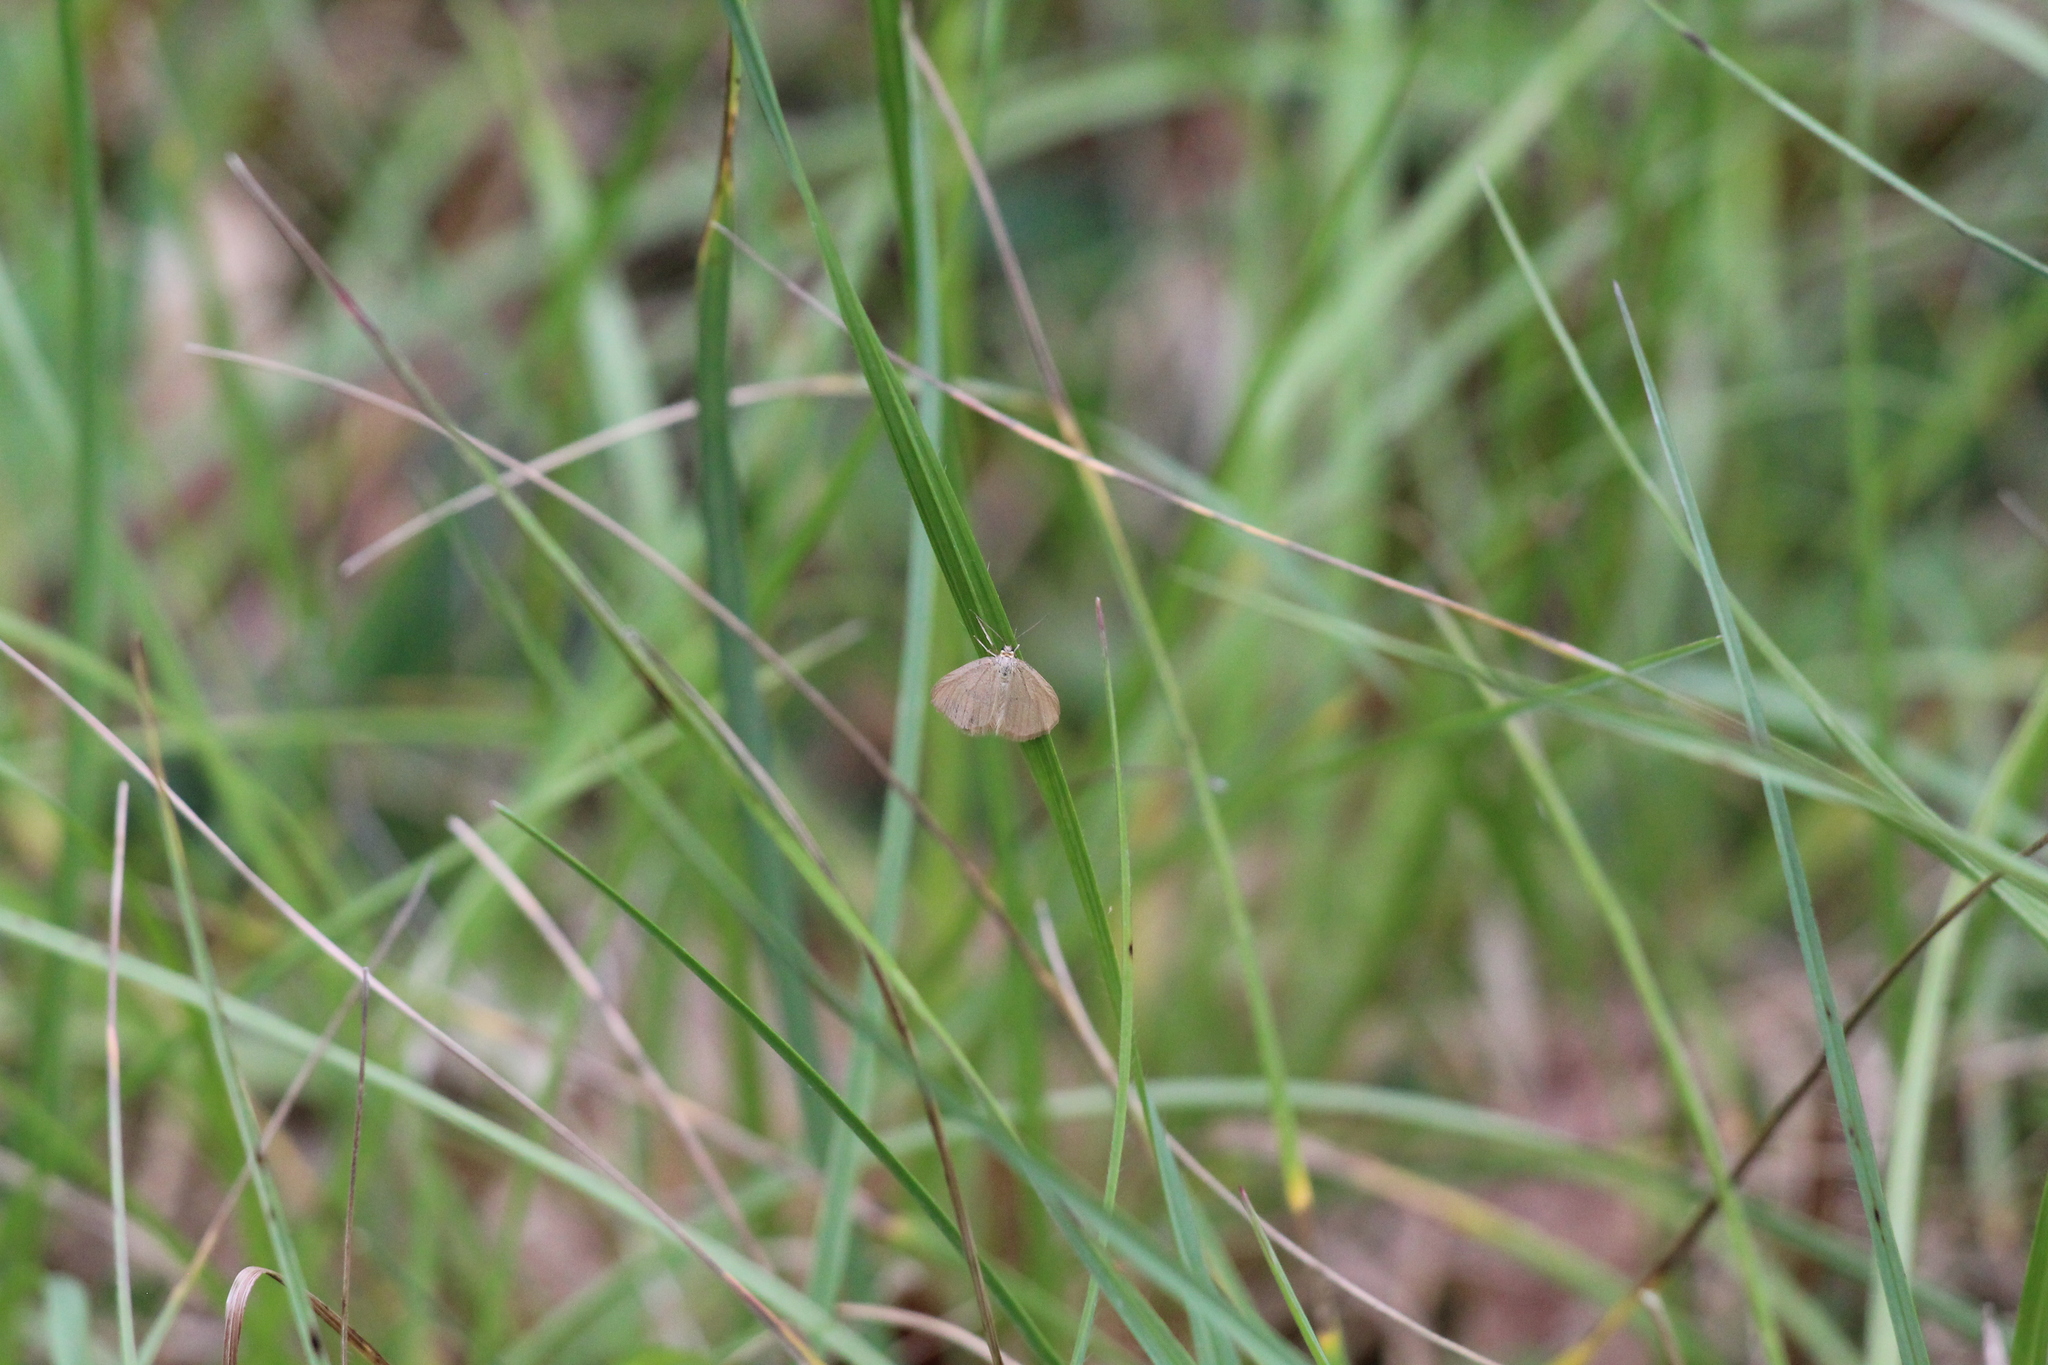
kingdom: Animalia
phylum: Arthropoda
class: Insecta
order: Lepidoptera
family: Geometridae
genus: Minoa
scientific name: Minoa murinata
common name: Drab looper
